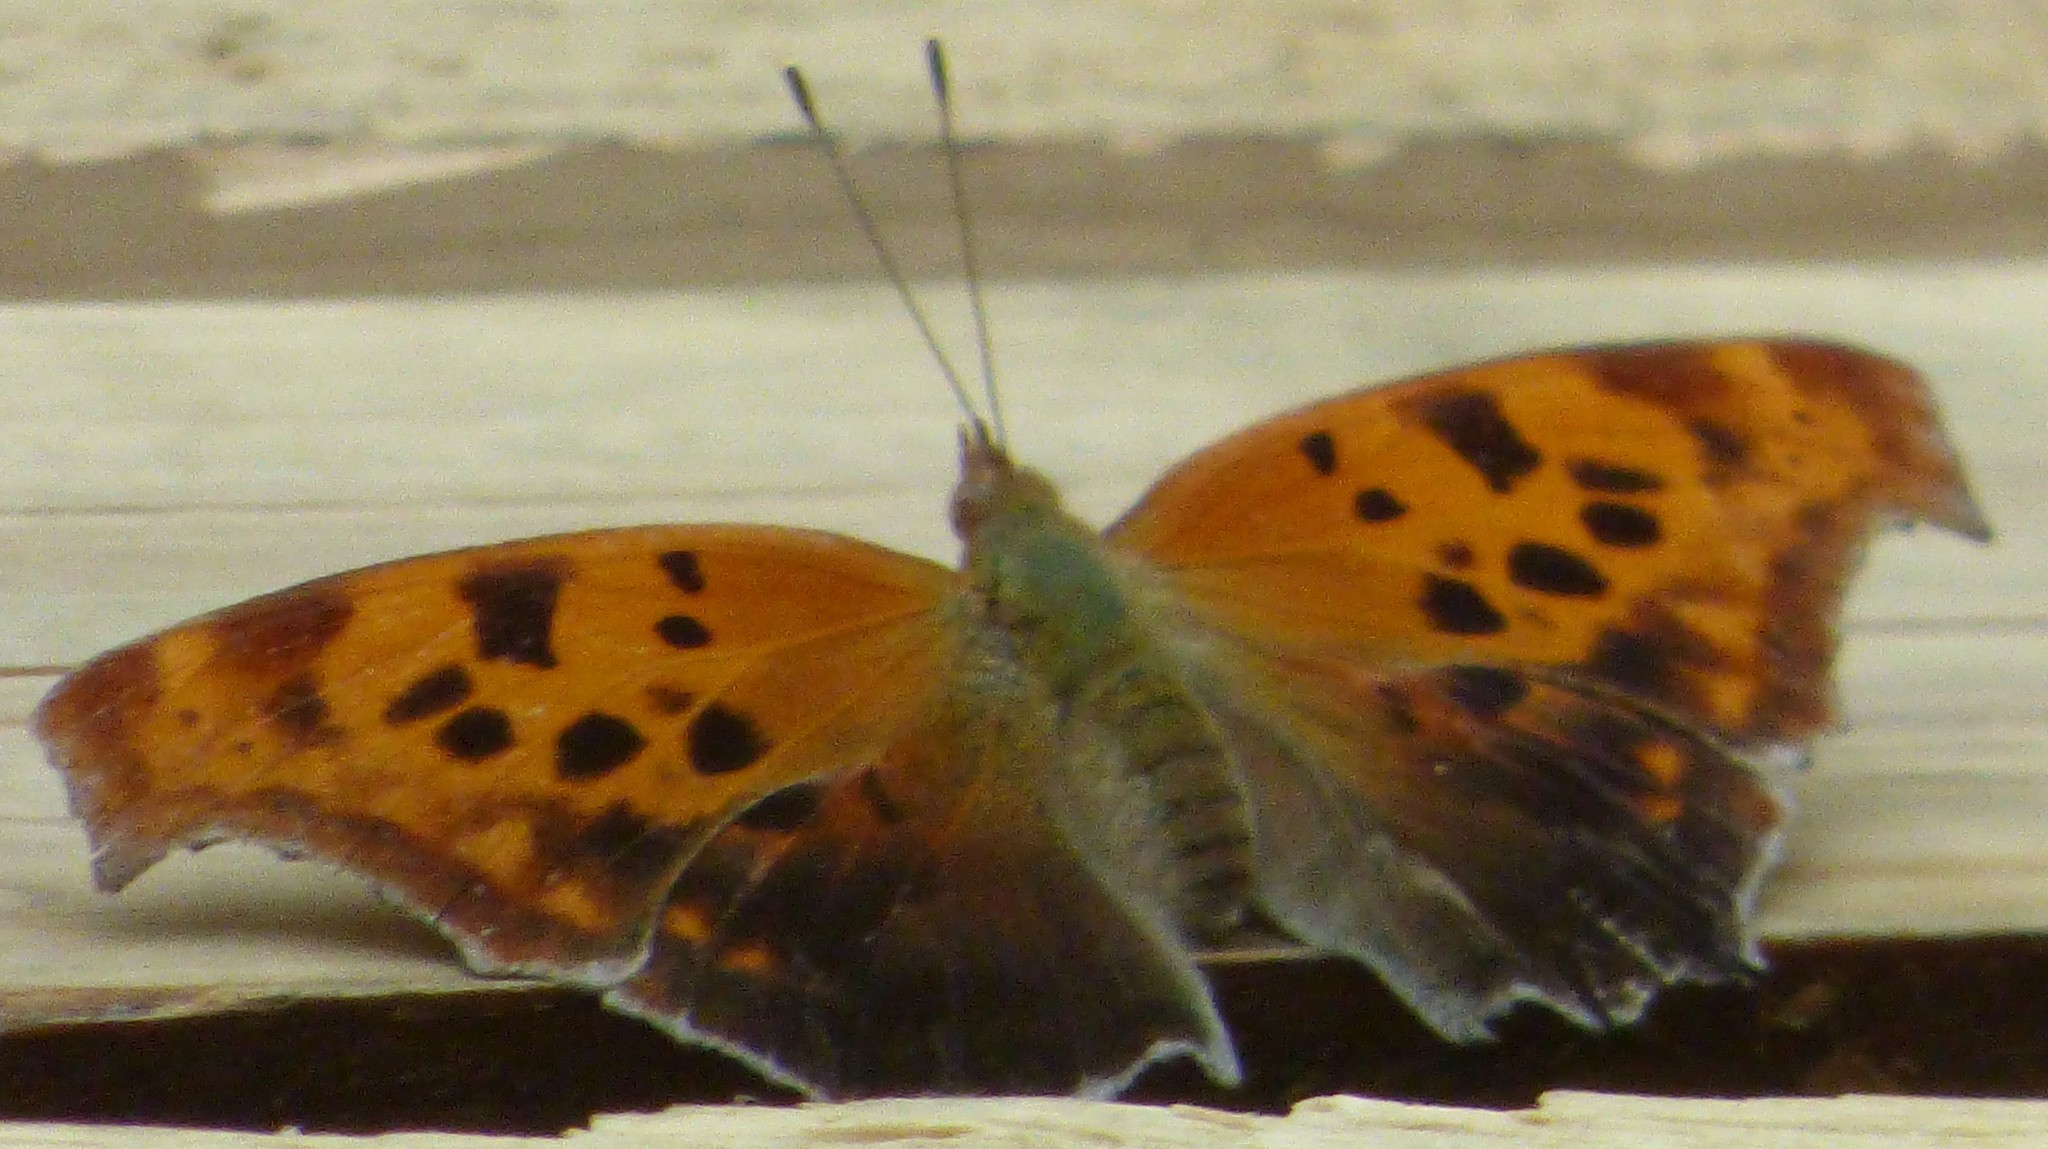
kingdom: Animalia
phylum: Arthropoda
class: Insecta
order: Lepidoptera
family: Nymphalidae
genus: Polygonia
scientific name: Polygonia interrogationis
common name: Question mark
